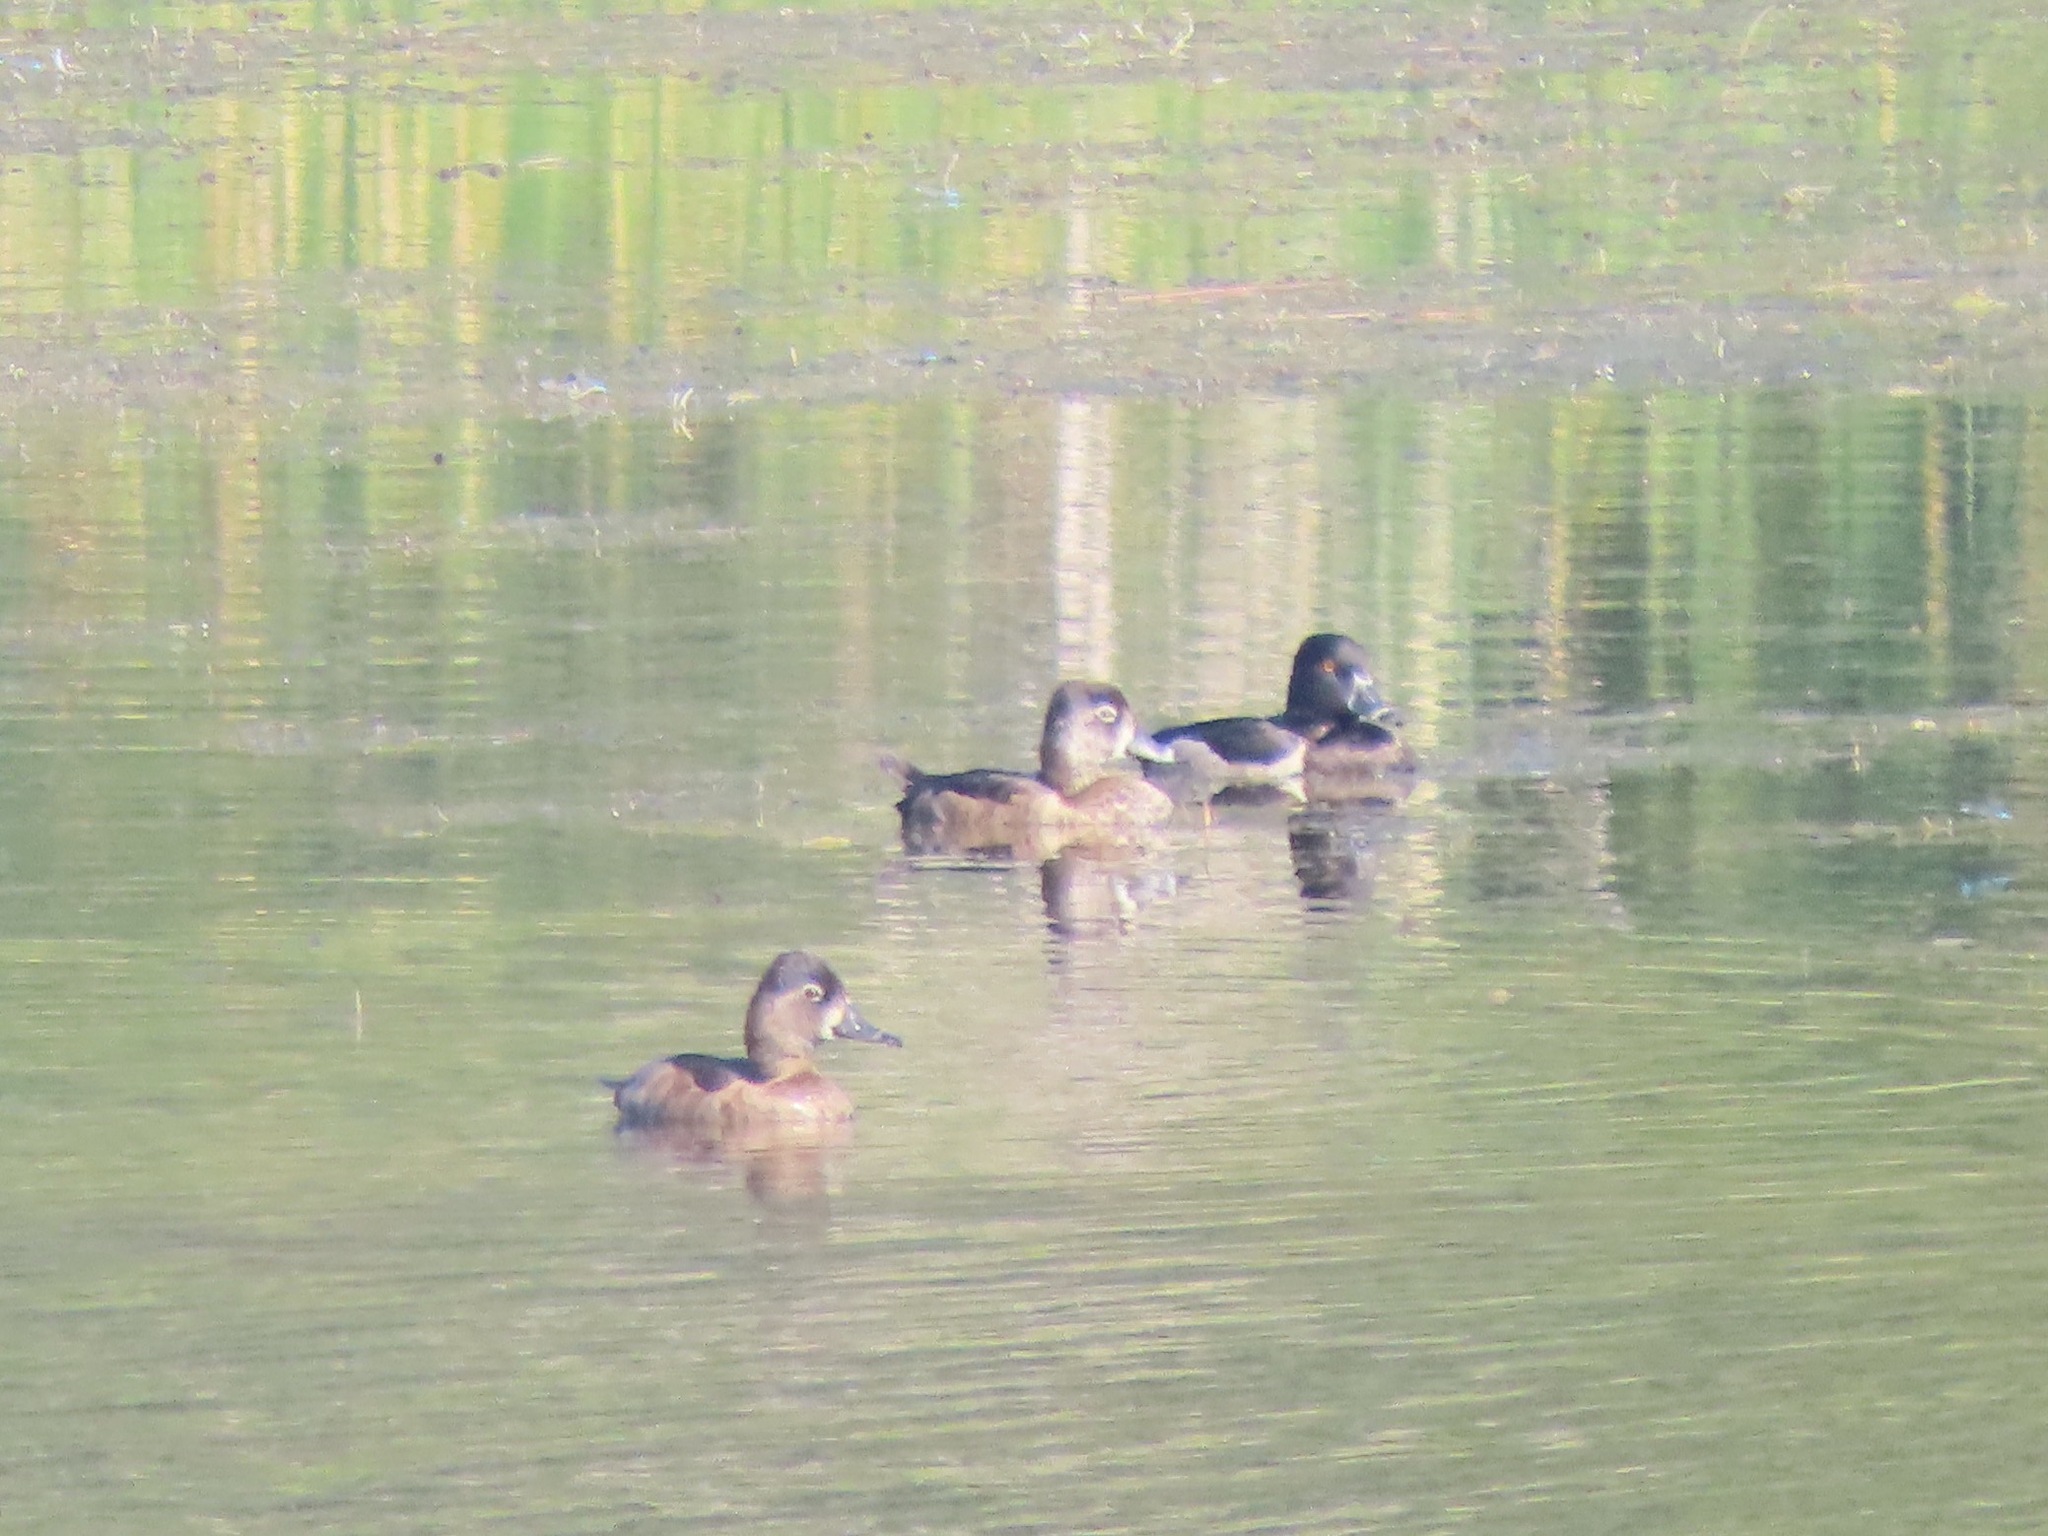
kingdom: Animalia
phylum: Chordata
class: Aves
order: Anseriformes
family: Anatidae
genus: Aythya
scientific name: Aythya collaris
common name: Ring-necked duck
